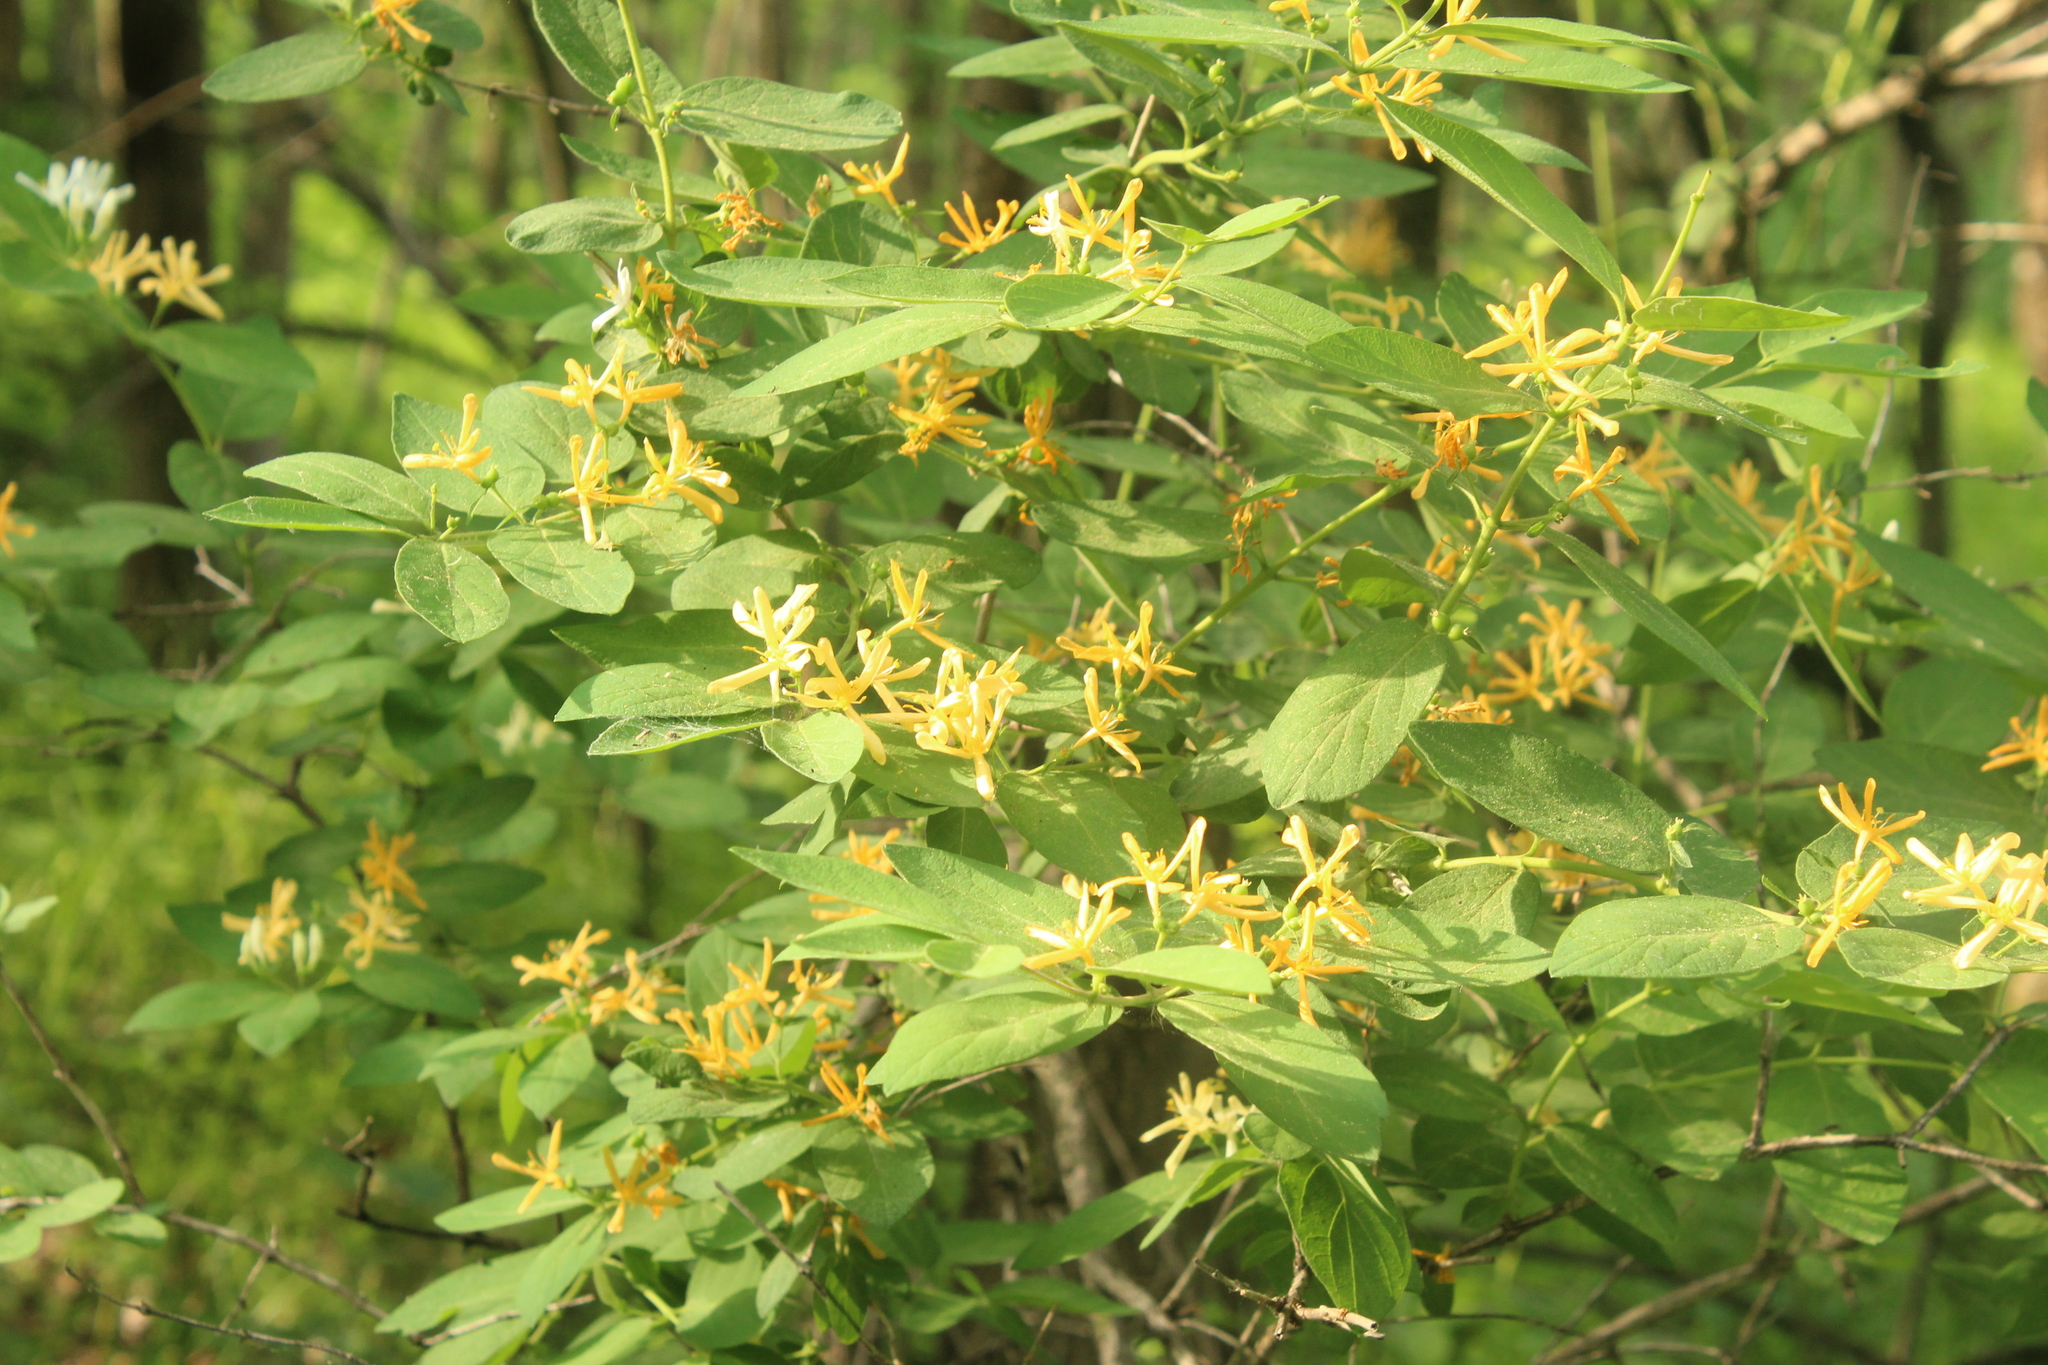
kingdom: Plantae
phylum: Tracheophyta
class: Magnoliopsida
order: Dipsacales
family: Caprifoliaceae
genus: Lonicera
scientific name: Lonicera morrowii
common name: Morrow's honeysuckle
